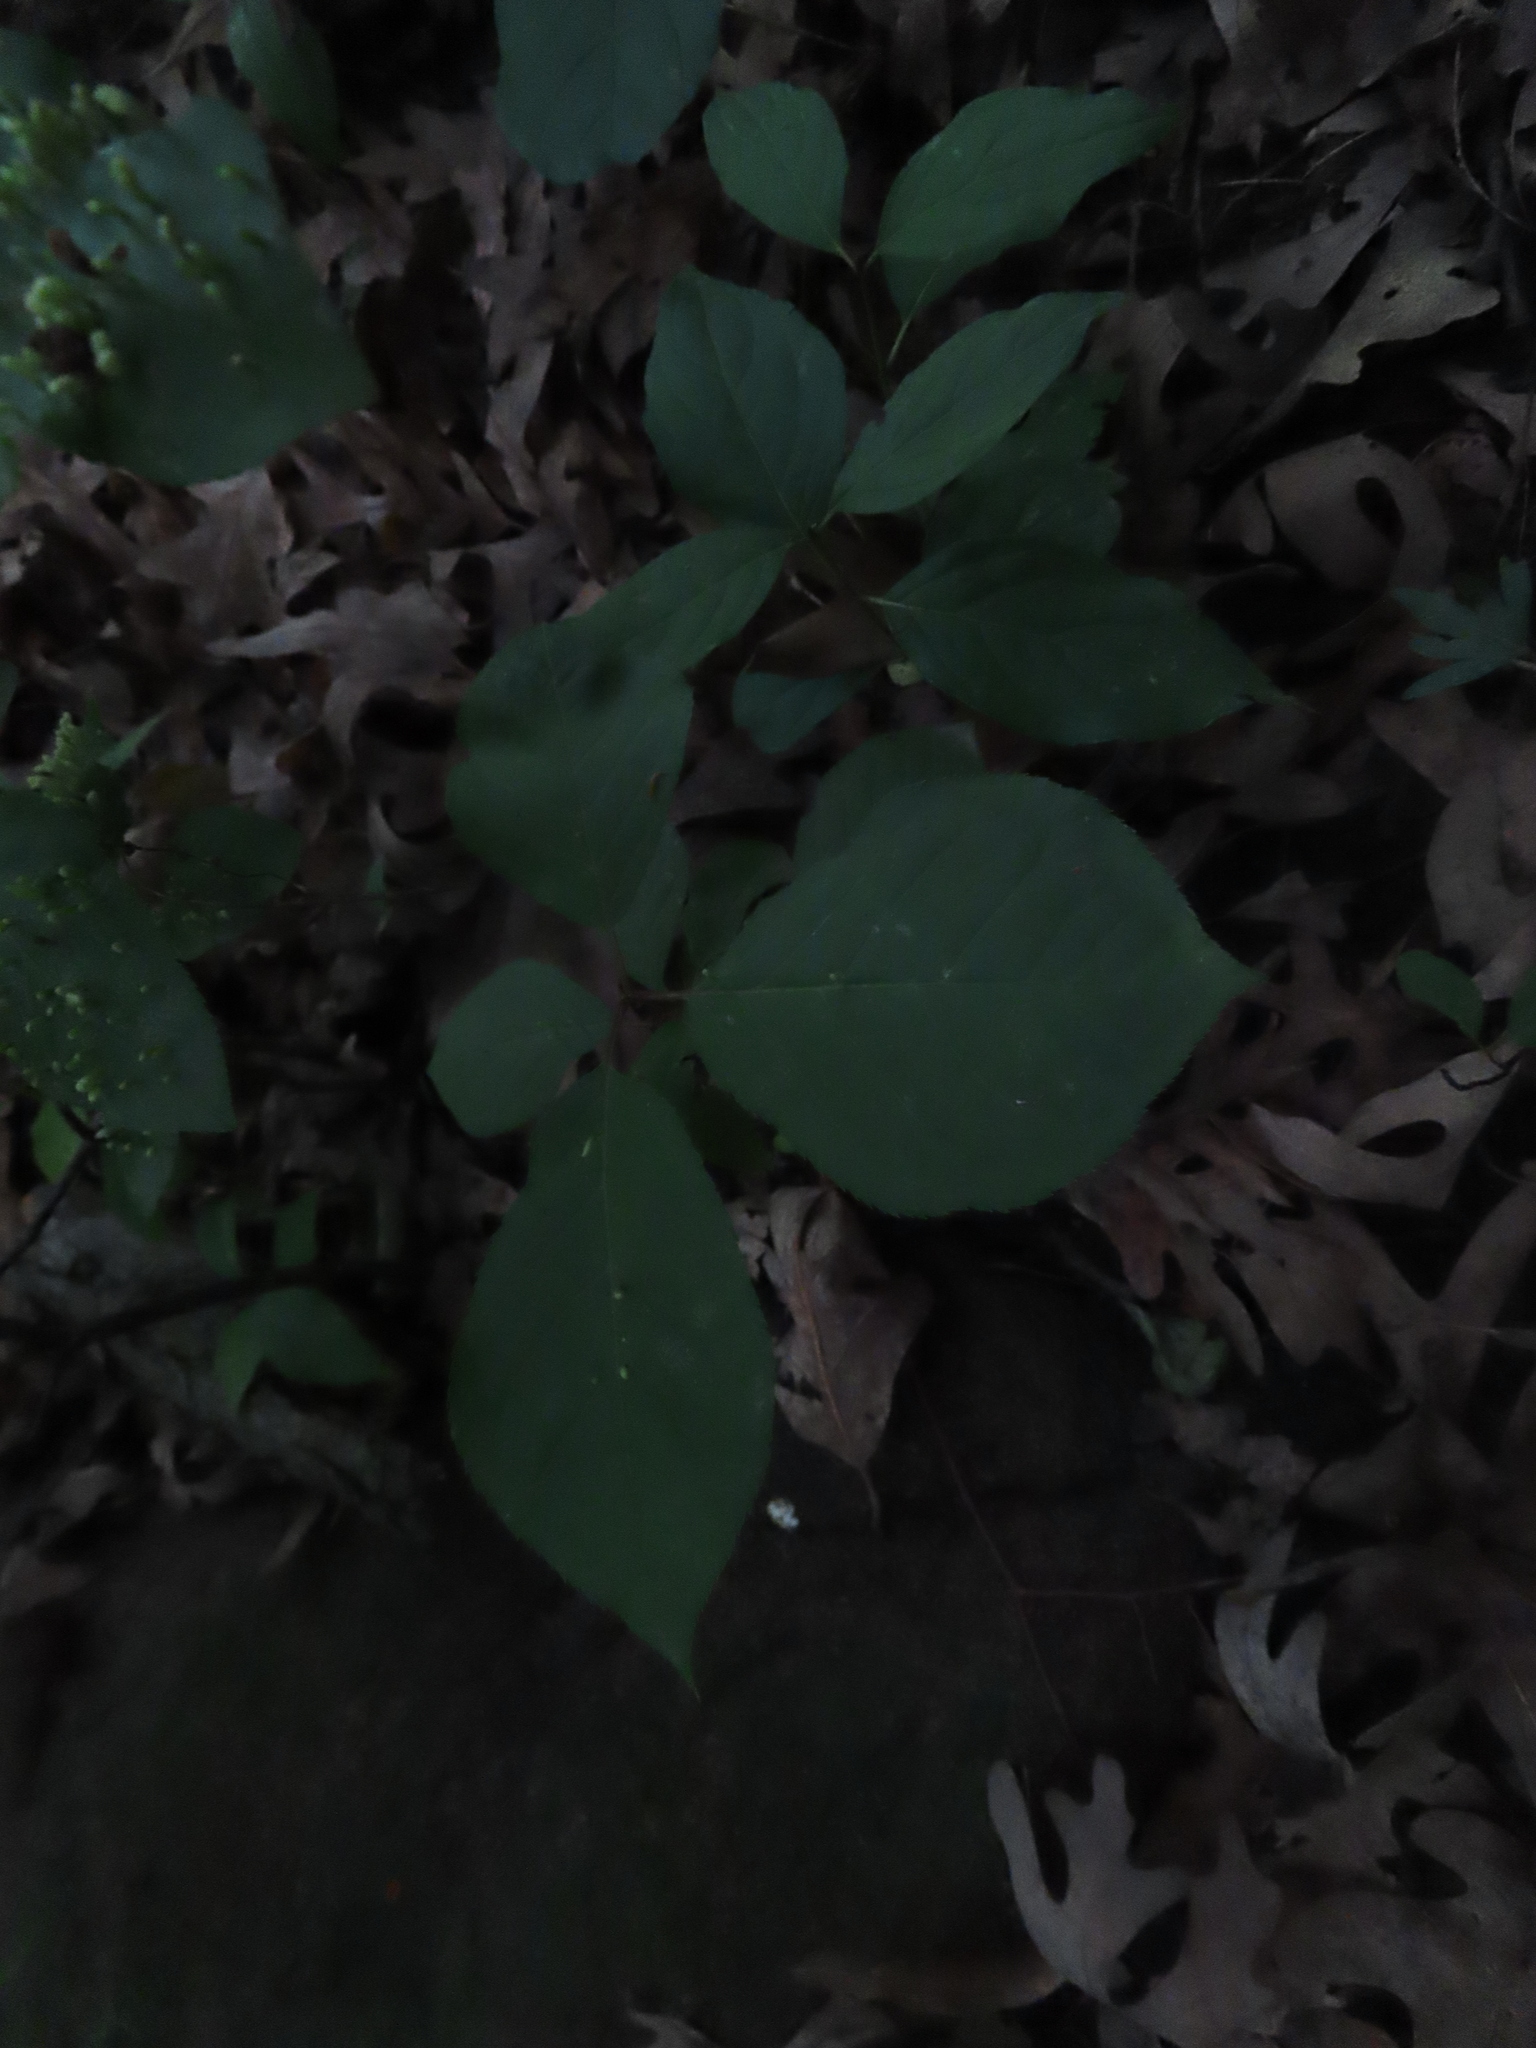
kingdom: Plantae
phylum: Tracheophyta
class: Magnoliopsida
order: Rosales
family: Rosaceae
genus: Prunus
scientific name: Prunus virginiana
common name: Chokecherry
